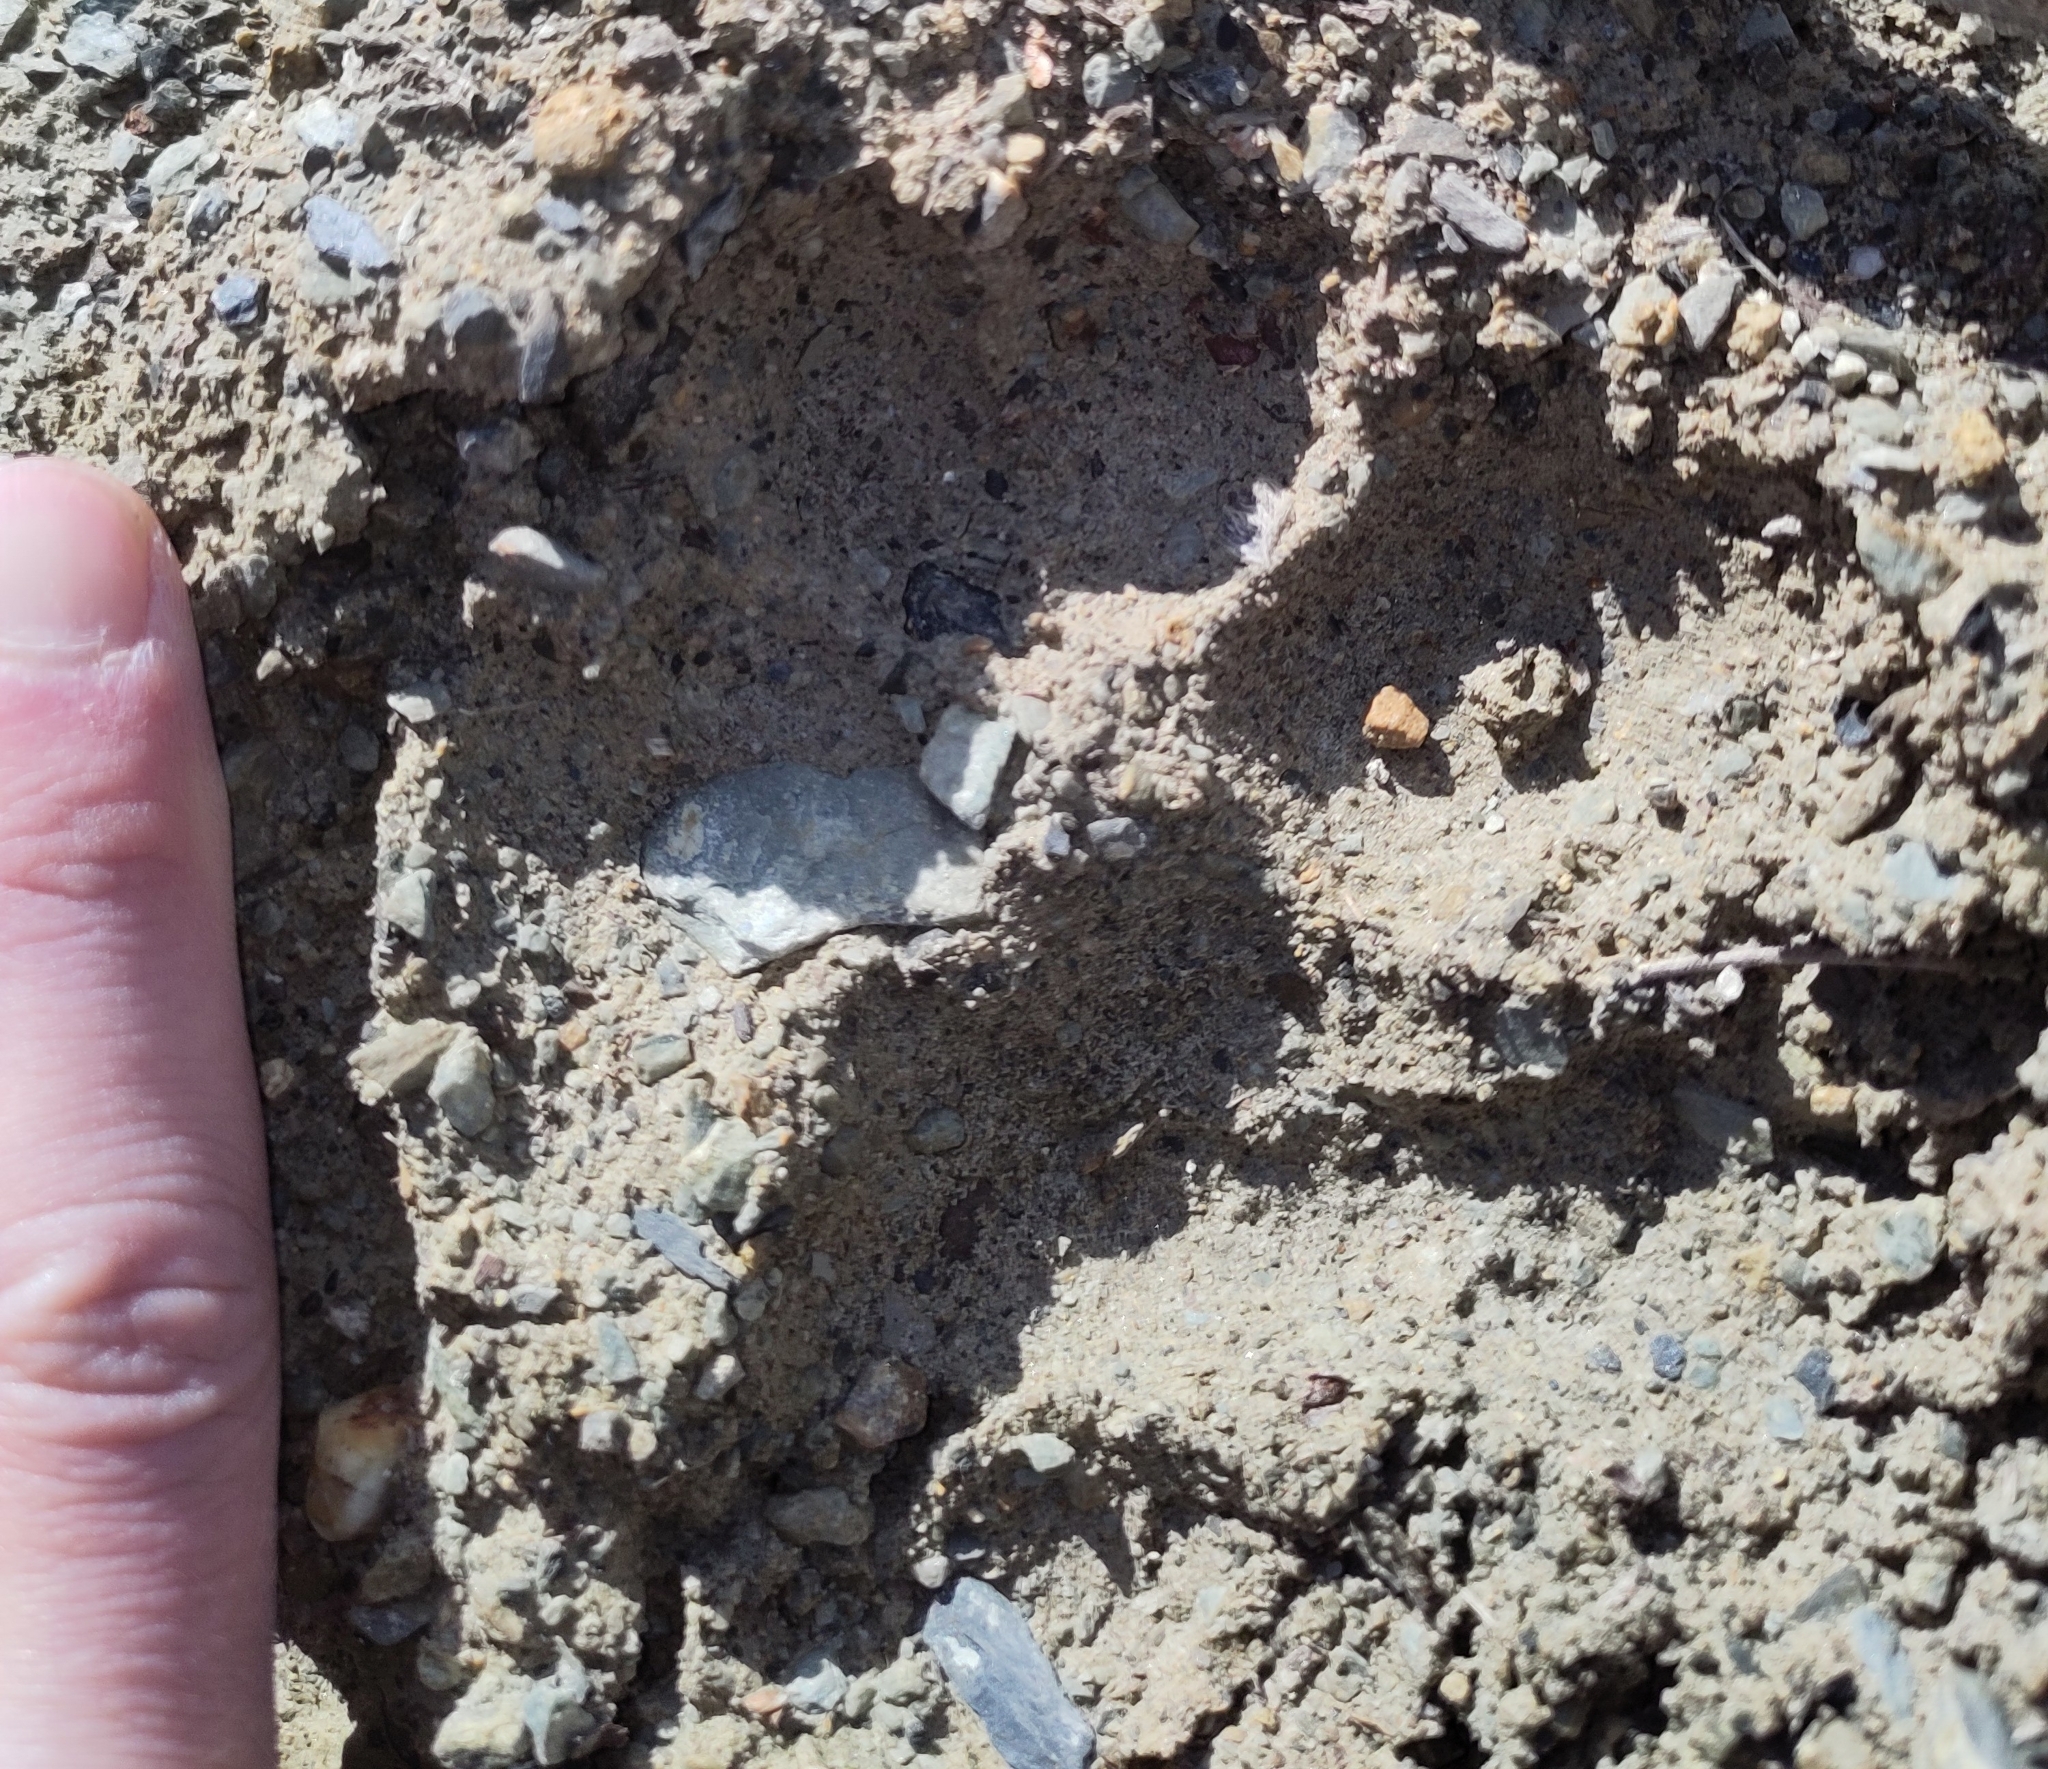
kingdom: Animalia
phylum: Chordata
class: Mammalia
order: Carnivora
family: Felidae
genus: Uncia
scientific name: Uncia uncia
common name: Snow leopard
